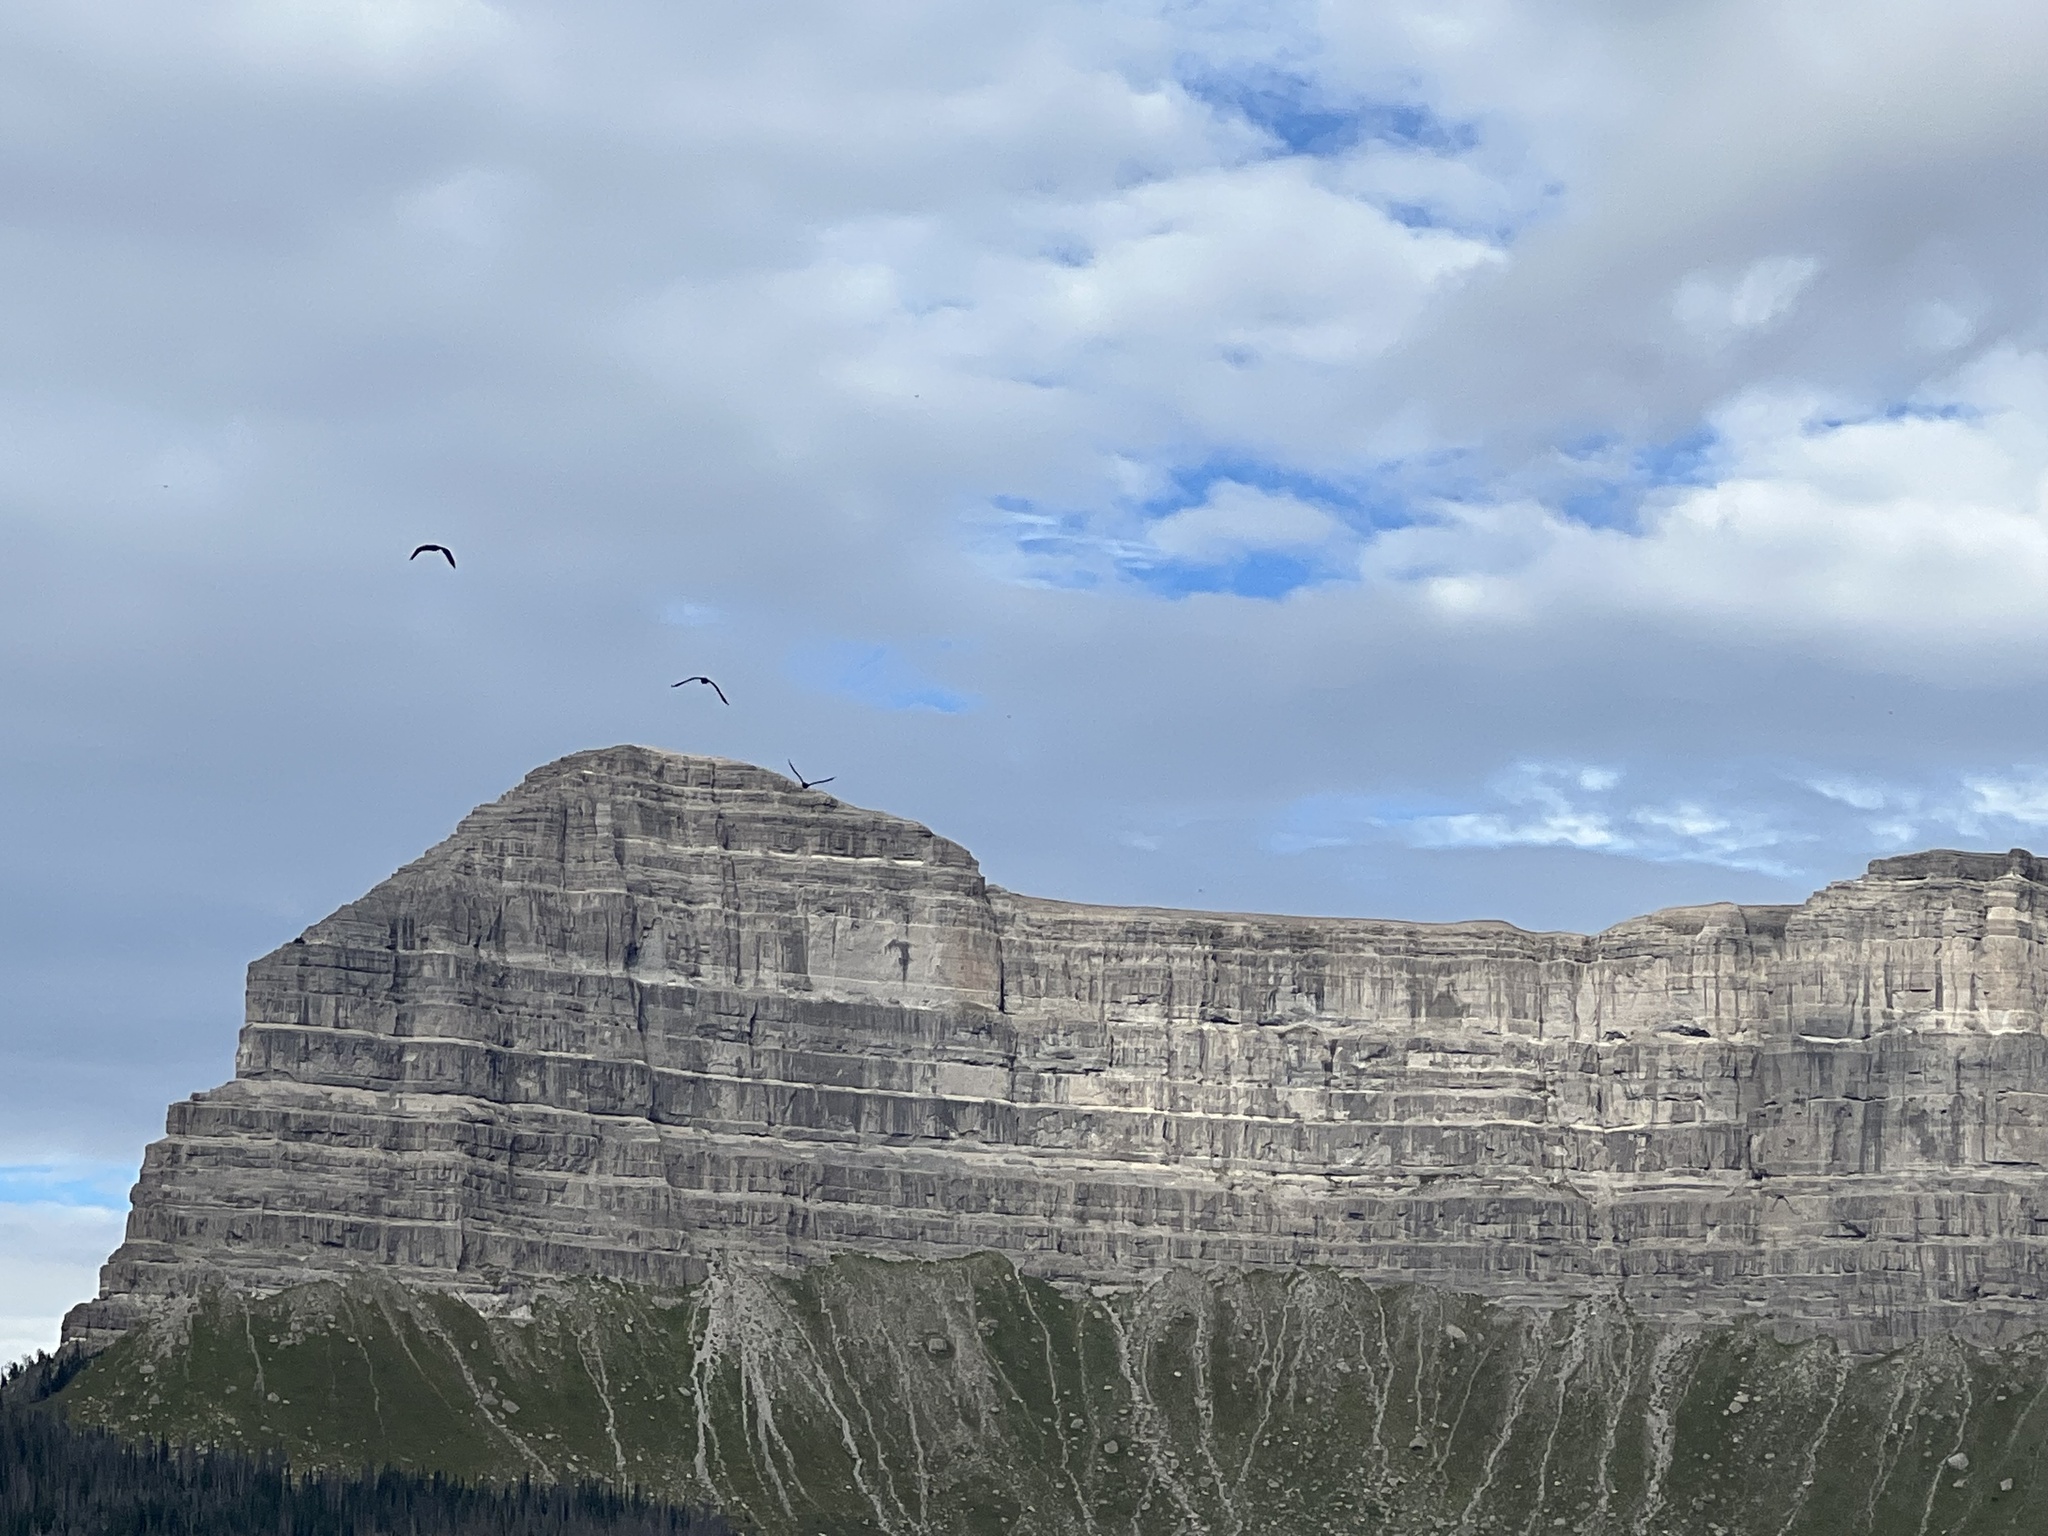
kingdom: Animalia
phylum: Chordata
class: Aves
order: Suliformes
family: Phalacrocoracidae
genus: Phalacrocorax
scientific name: Phalacrocorax auritus
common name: Double-crested cormorant
